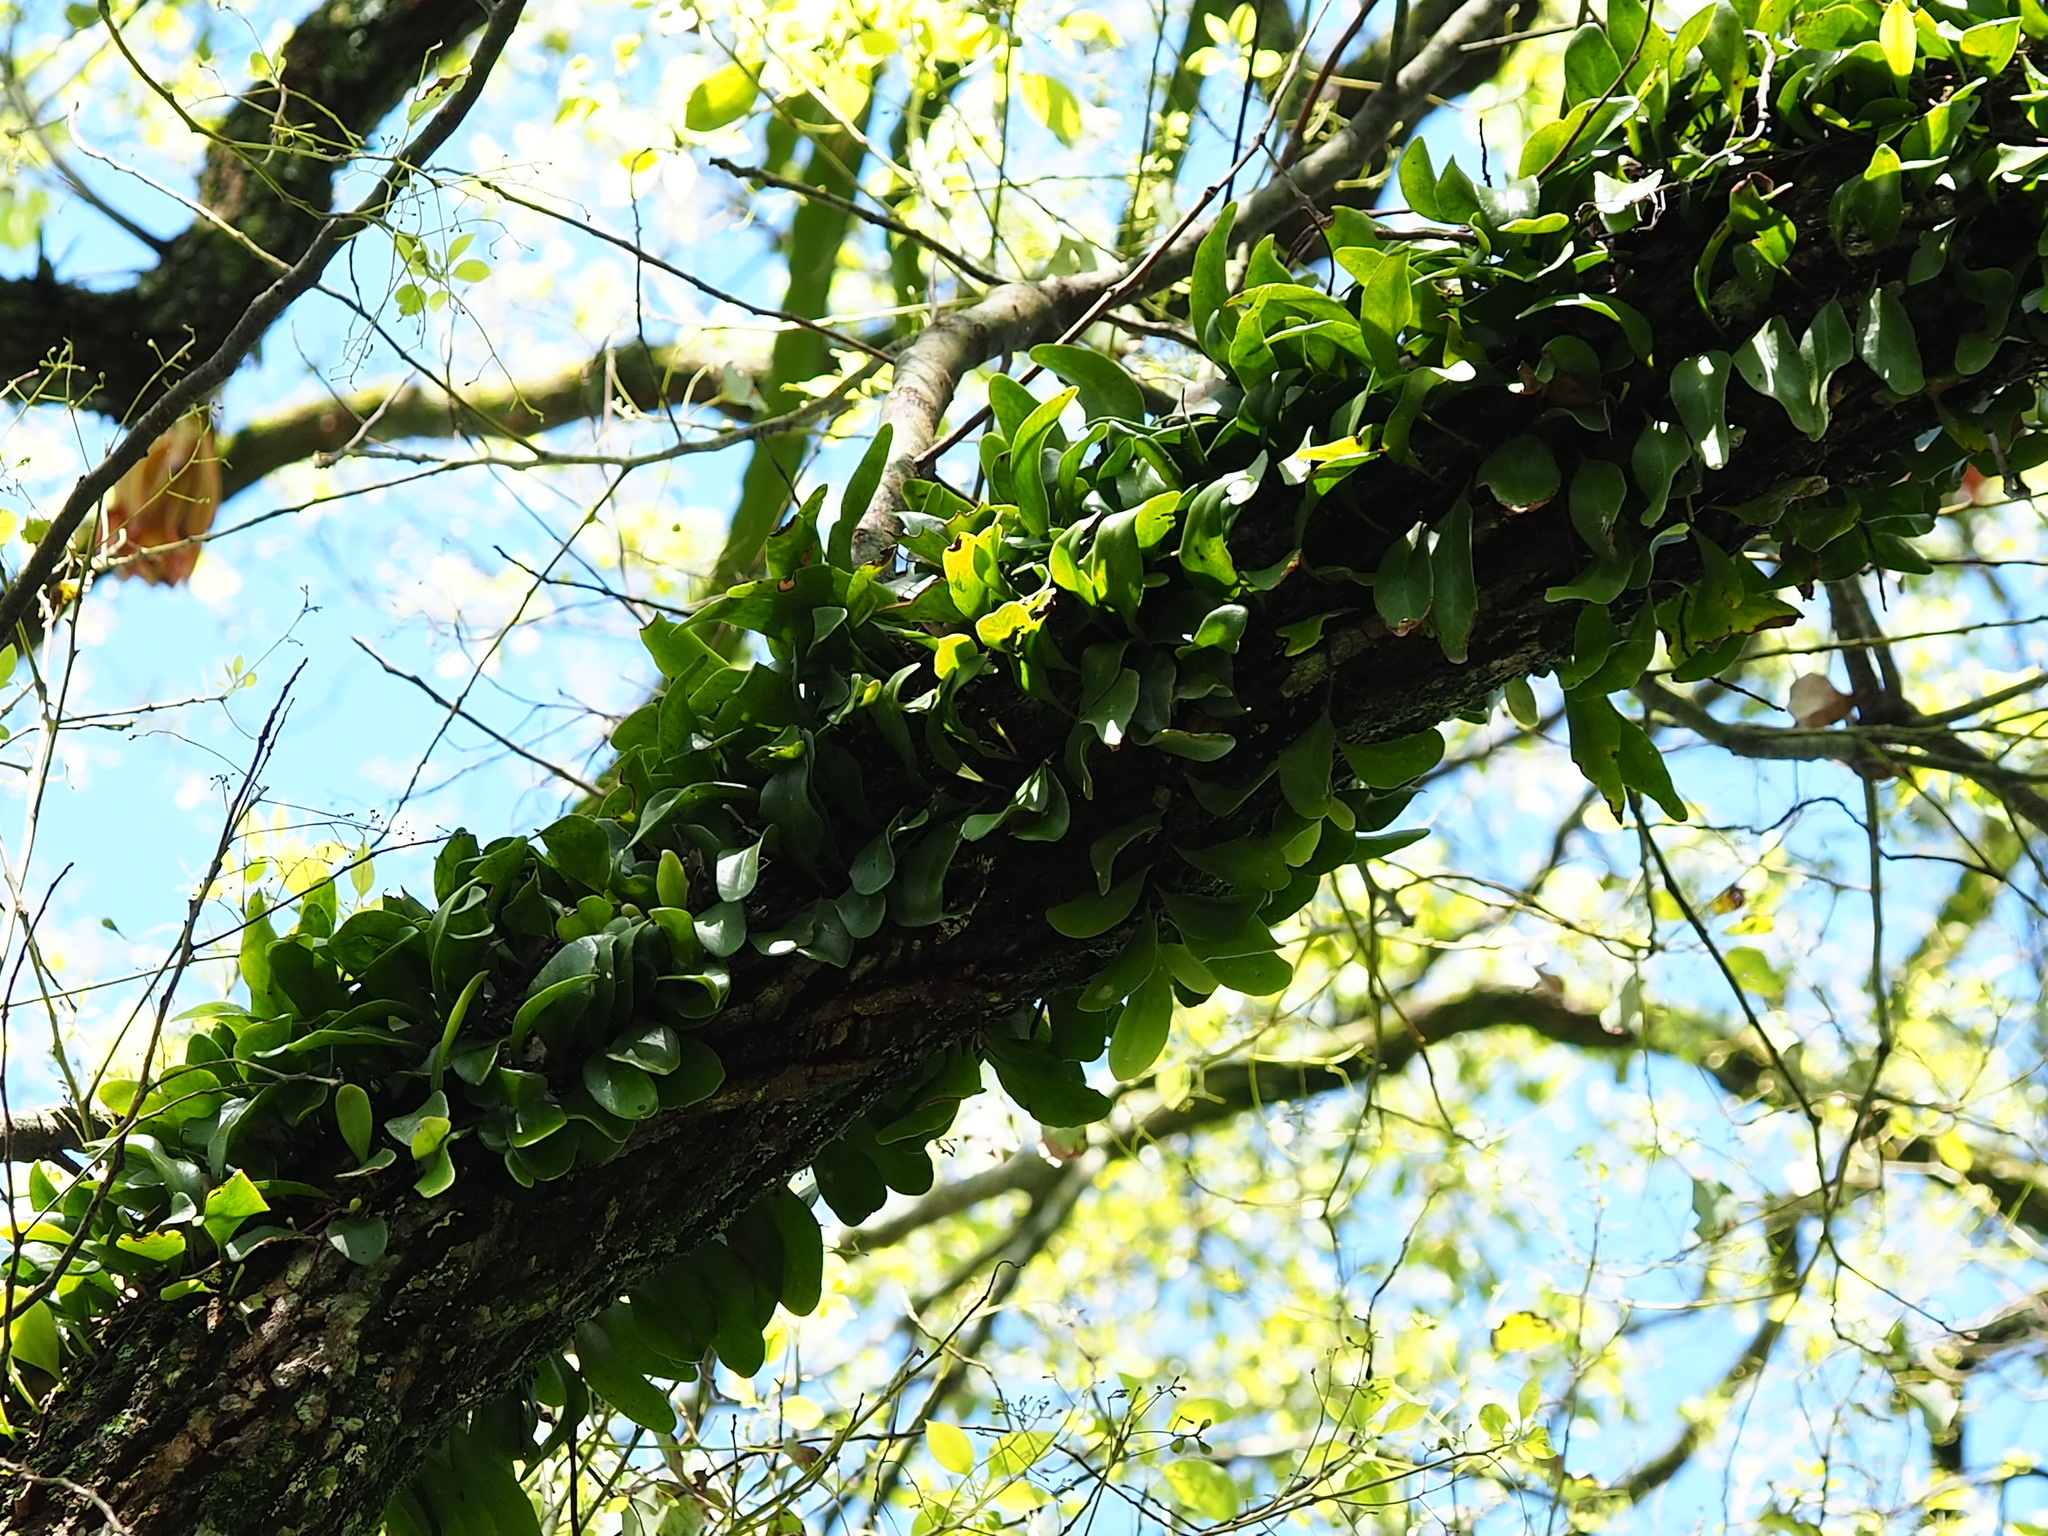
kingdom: Plantae
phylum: Tracheophyta
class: Polypodiopsida
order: Polypodiales
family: Polypodiaceae
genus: Pyrrosia
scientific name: Pyrrosia lanceolata
